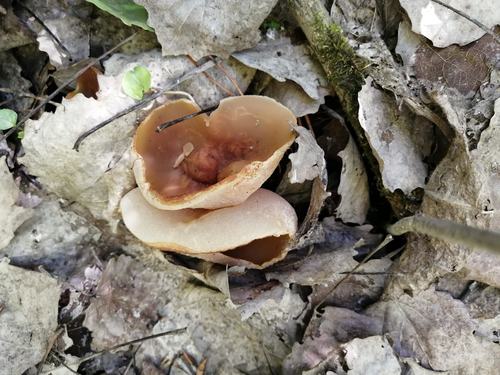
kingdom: Fungi
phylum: Ascomycota
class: Pezizomycetes
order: Pezizales
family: Pezizaceae
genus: Peziza
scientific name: Peziza varia
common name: Layered cup
